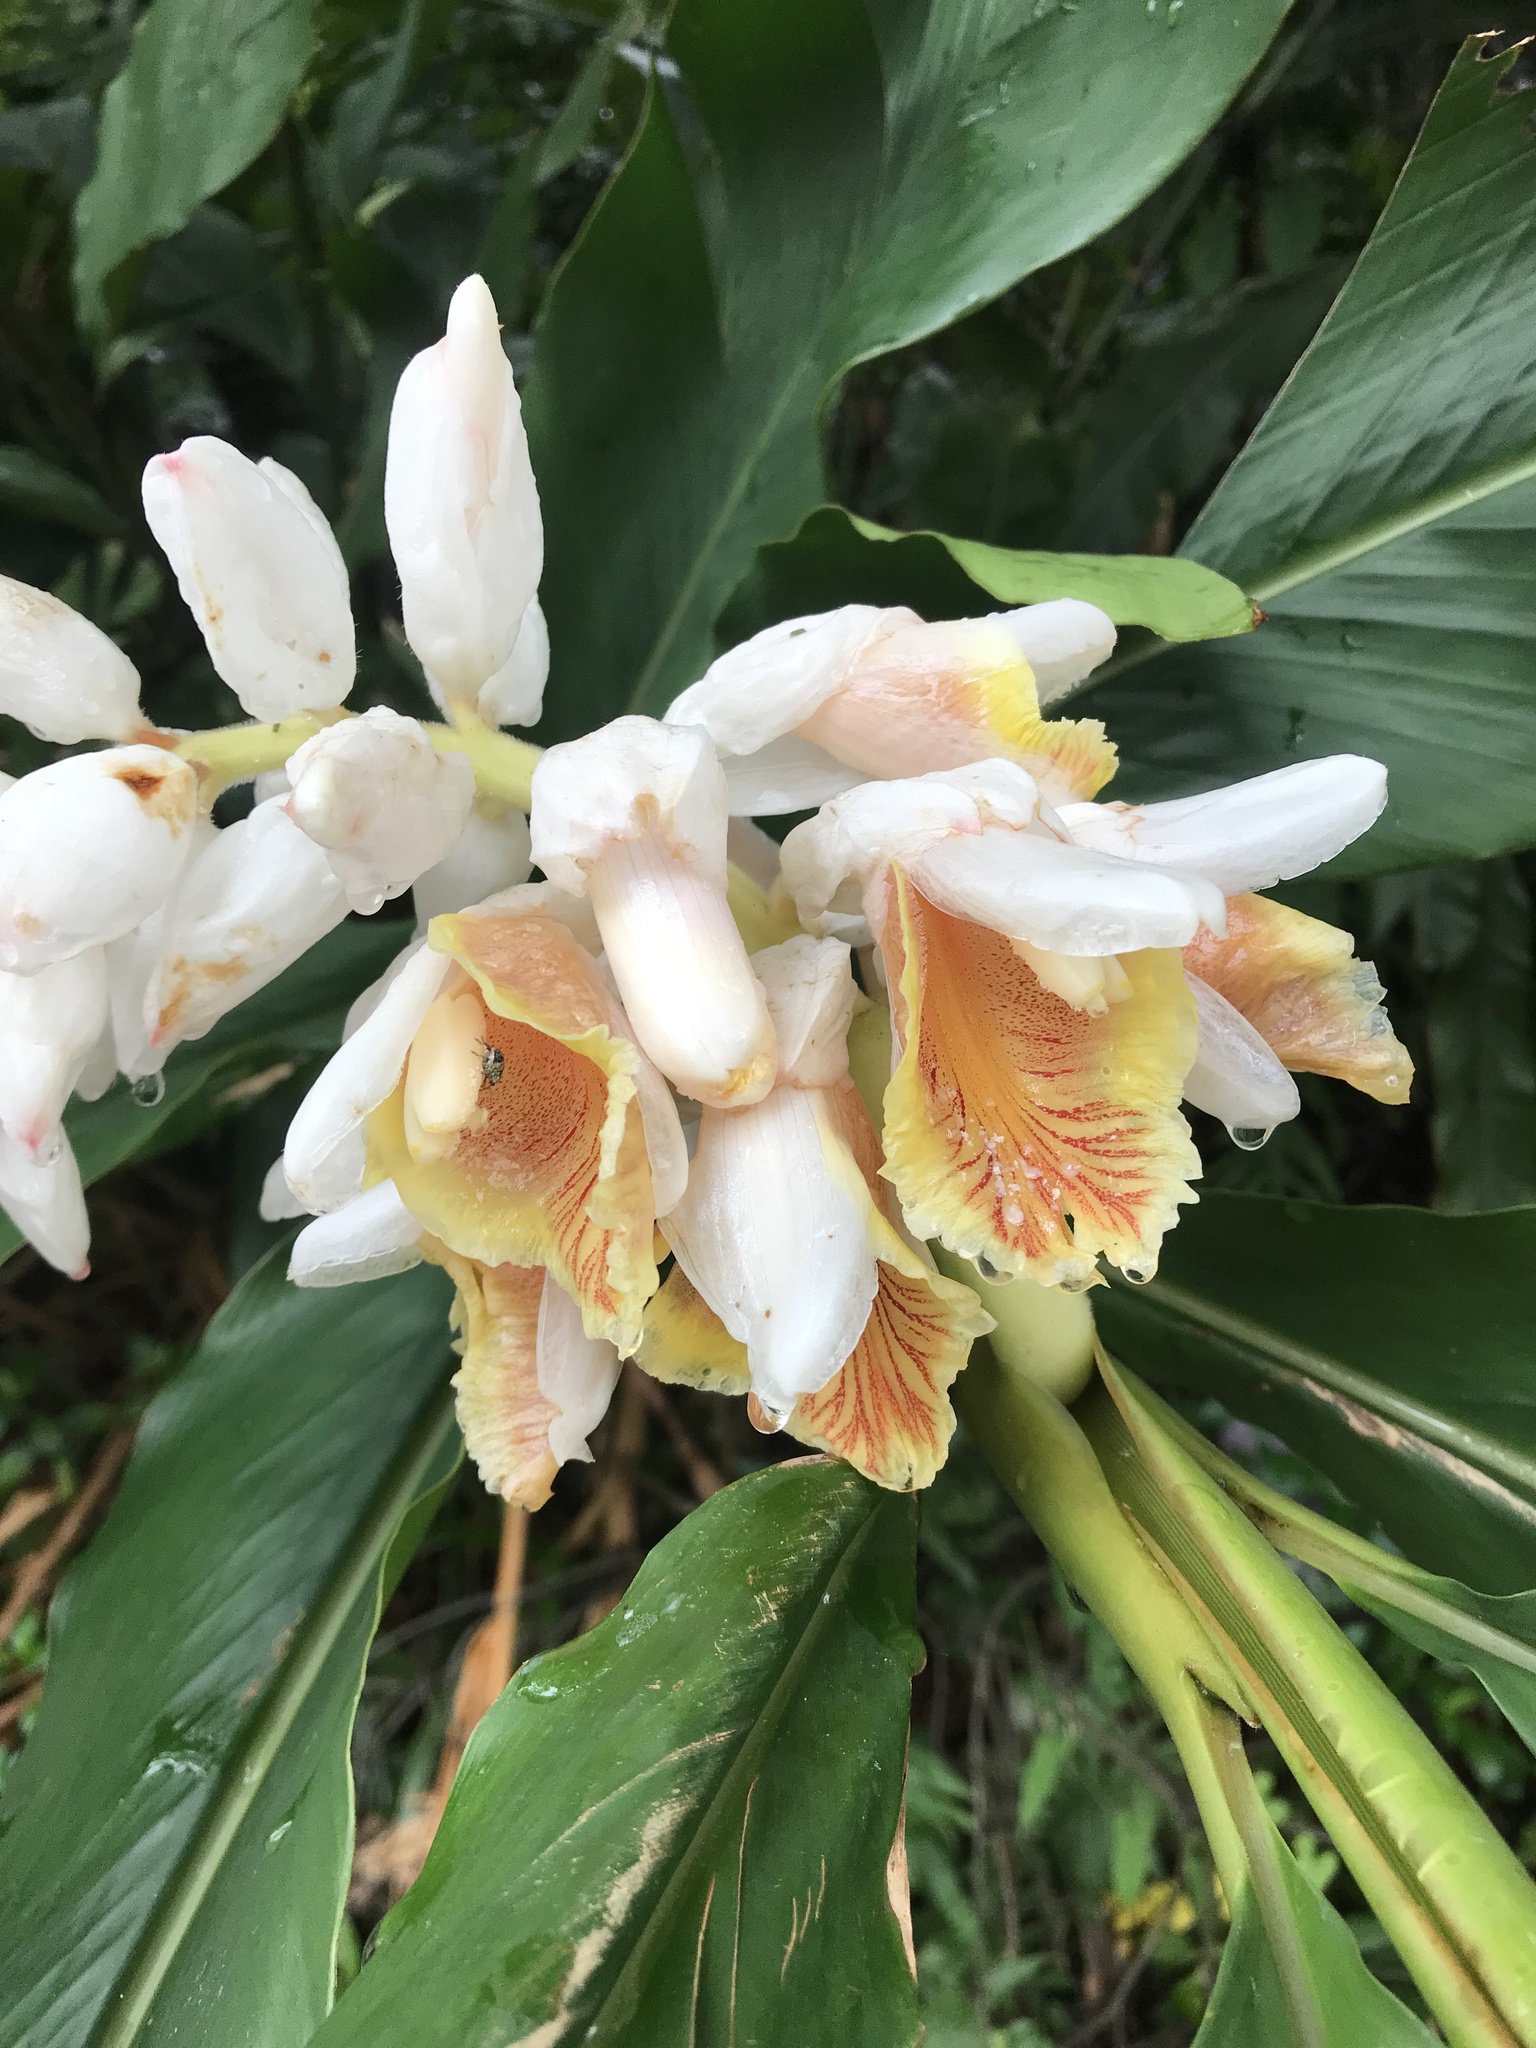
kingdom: Plantae
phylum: Tracheophyta
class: Liliopsida
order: Zingiberales
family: Zingiberaceae
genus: Alpinia
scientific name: Alpinia uraiensis
